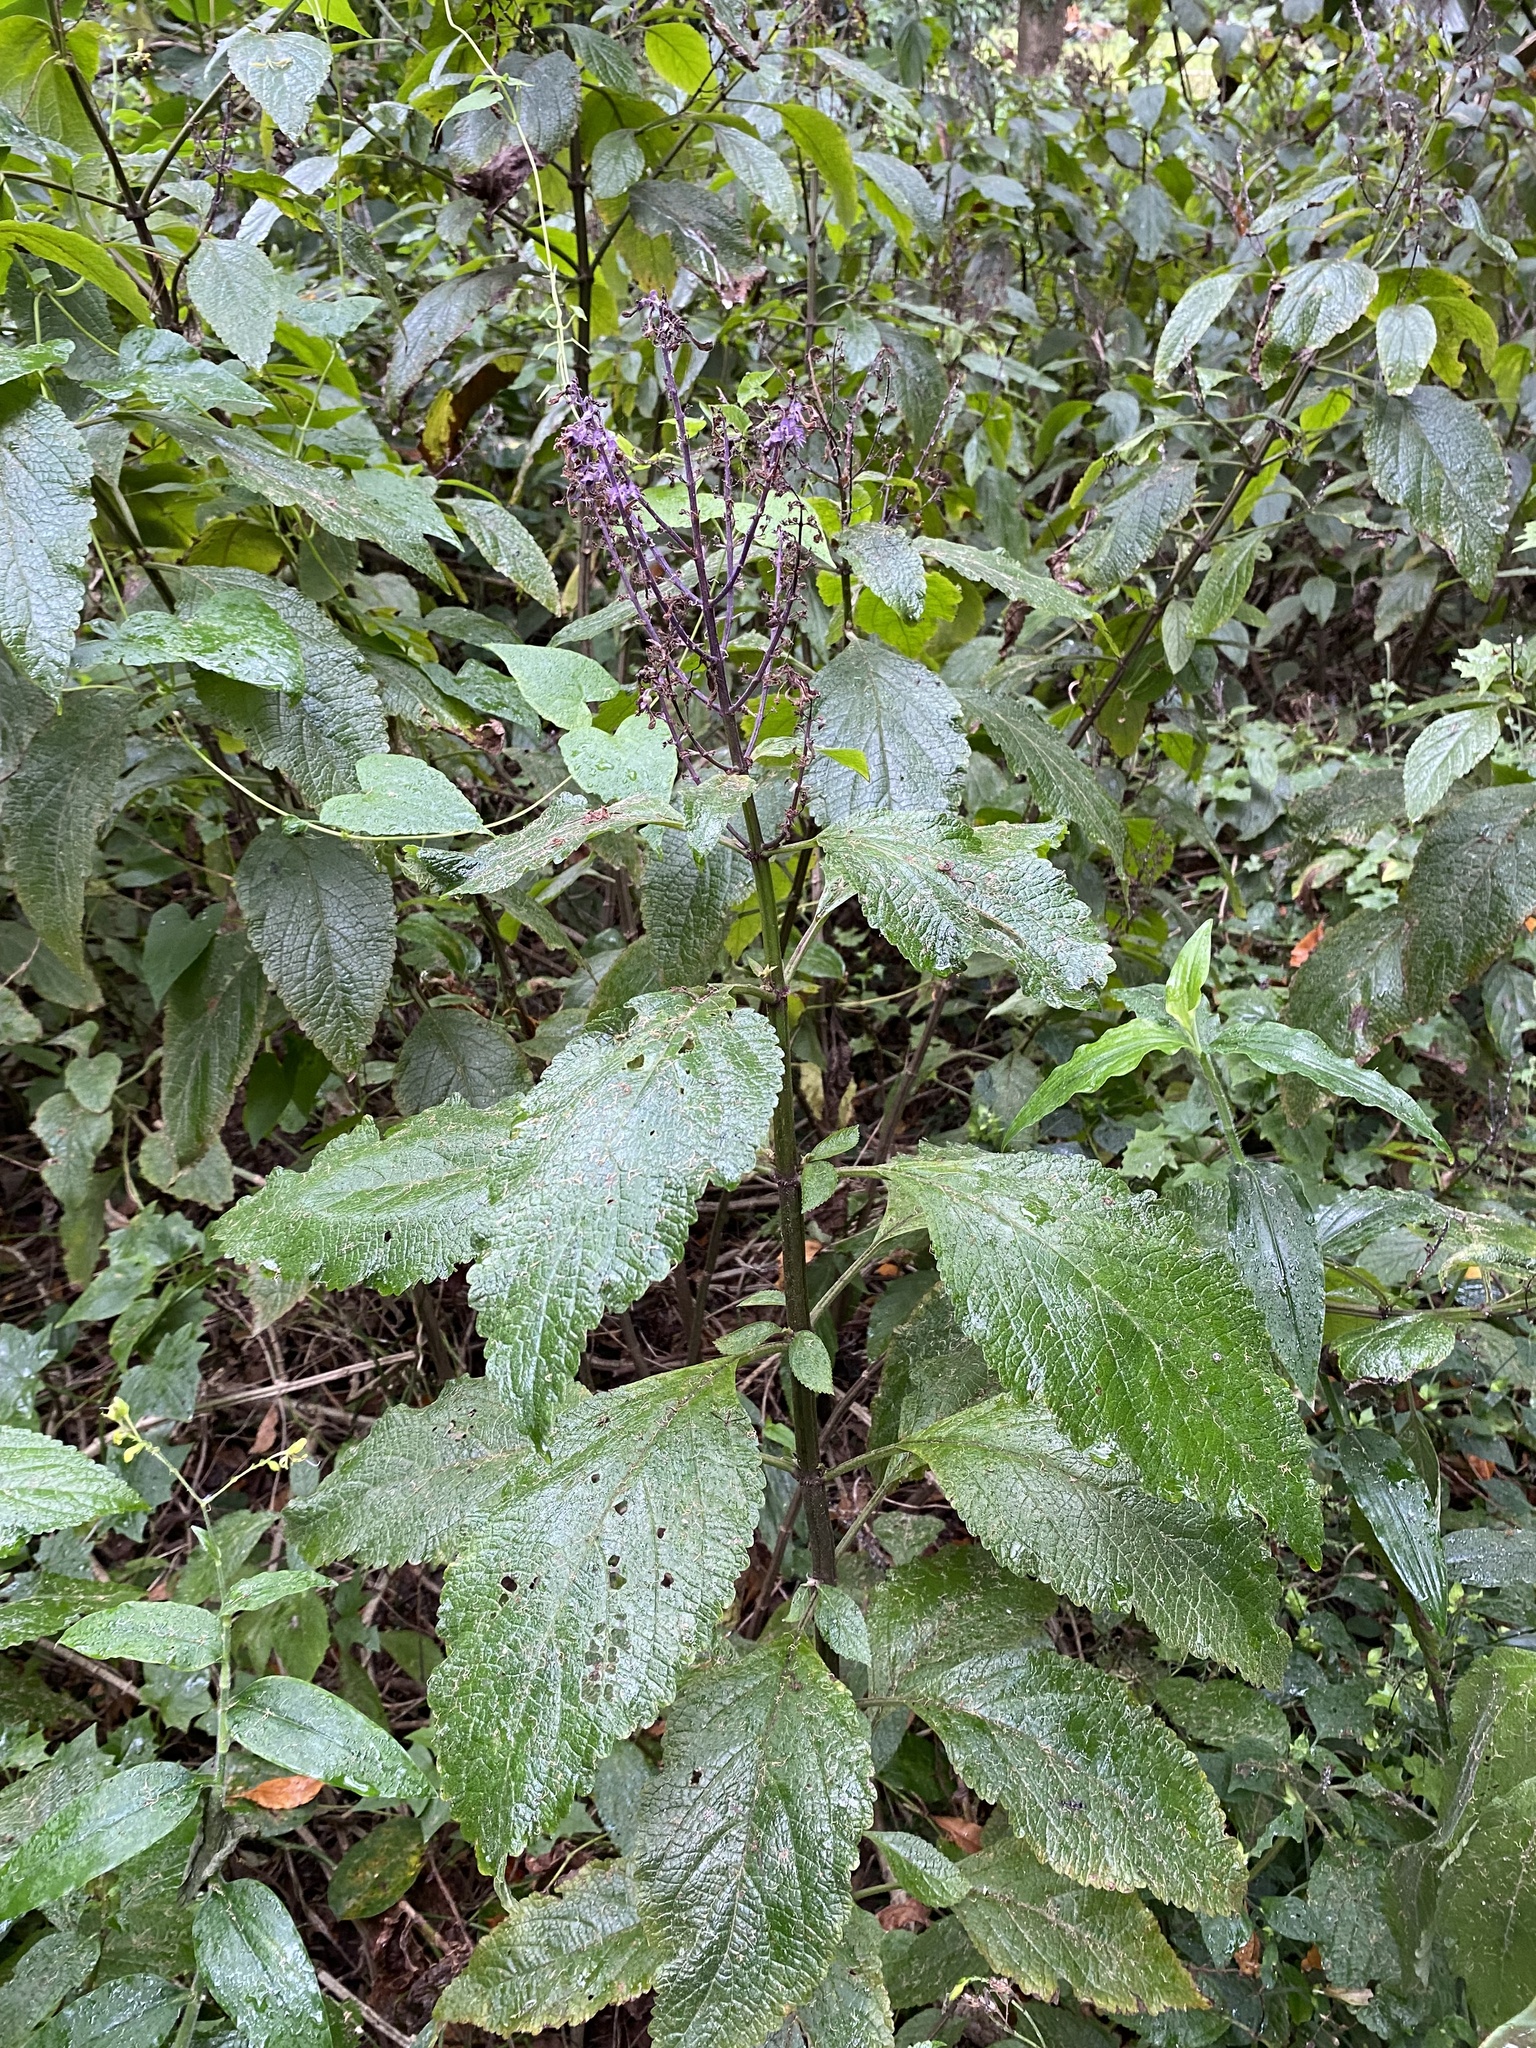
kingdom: Plantae
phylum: Tracheophyta
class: Magnoliopsida
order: Lamiales
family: Lamiaceae
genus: Plectranthus
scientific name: Plectranthus ecklonii
